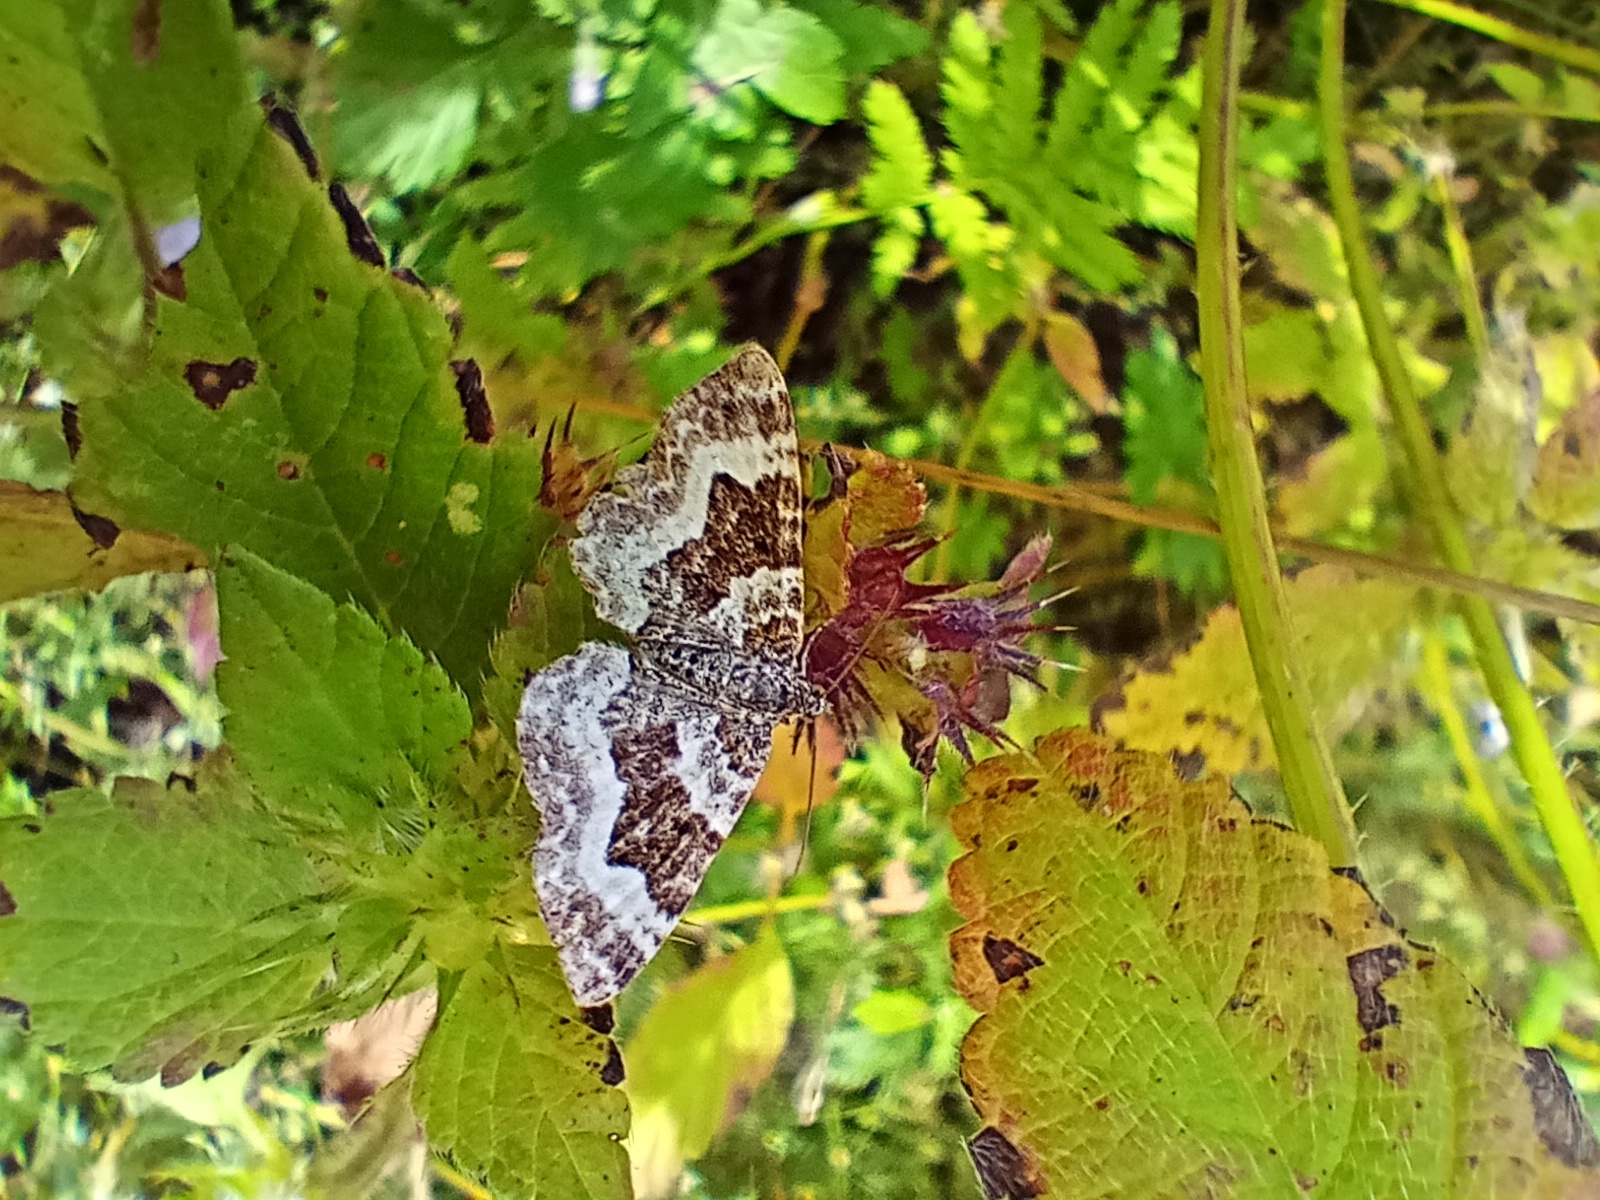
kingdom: Animalia
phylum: Arthropoda
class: Insecta
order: Lepidoptera
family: Geometridae
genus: Epirrhoe
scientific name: Epirrhoe alternata
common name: Common carpet
